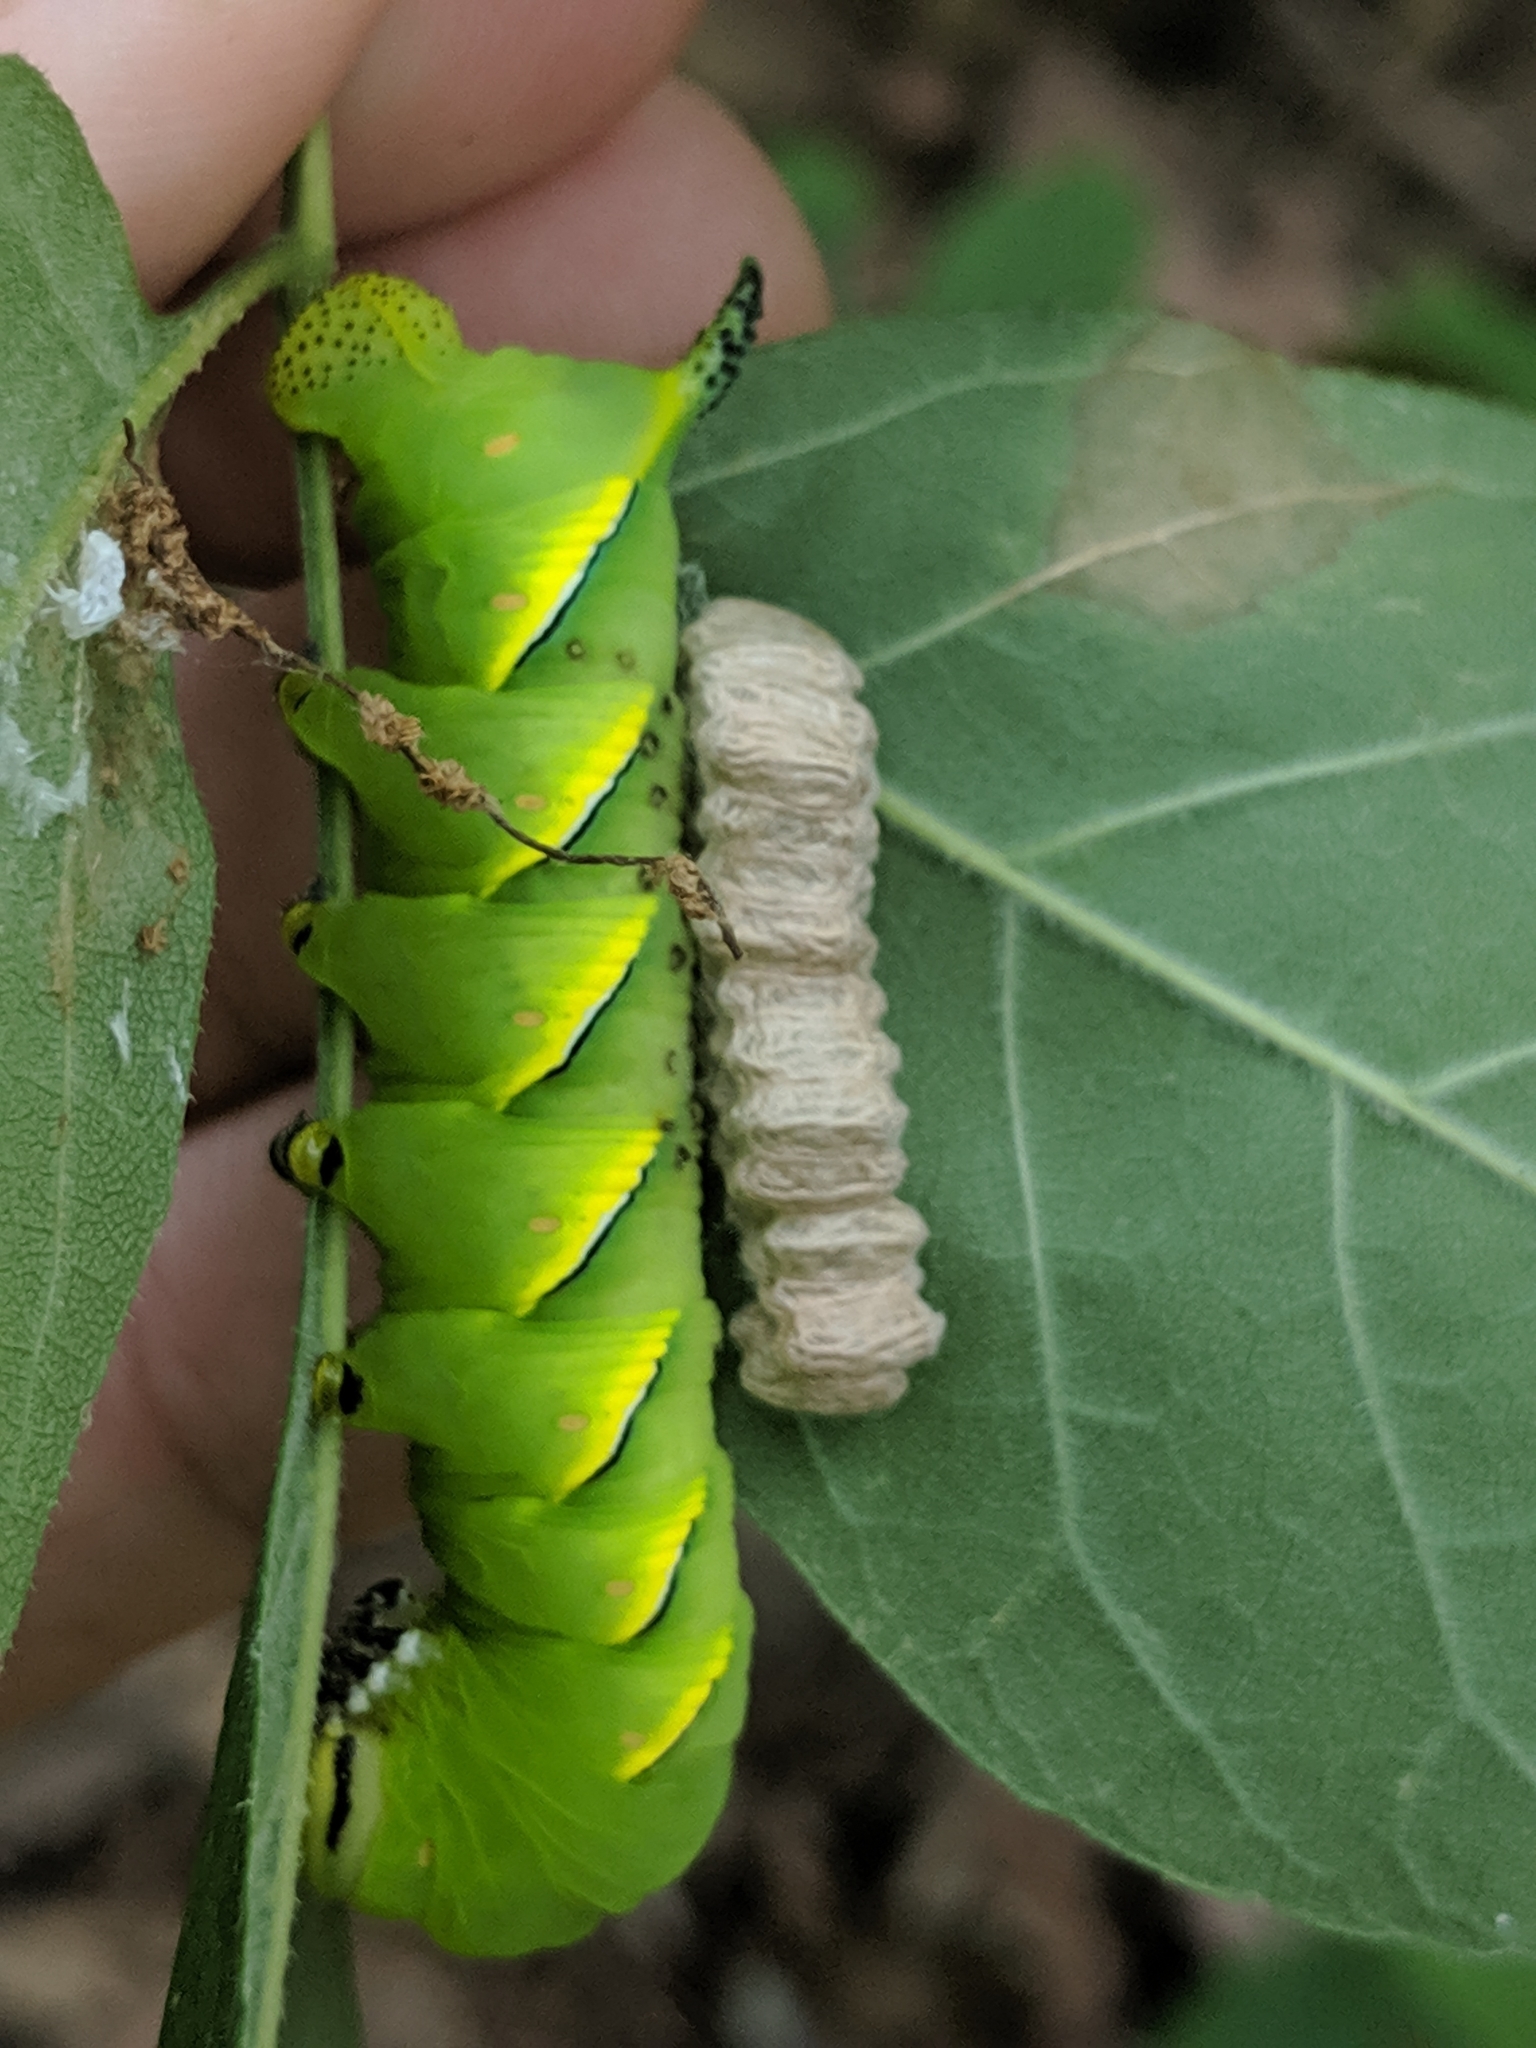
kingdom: Animalia
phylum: Arthropoda
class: Insecta
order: Lepidoptera
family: Sphingidae
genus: Sphinx
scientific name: Sphinx kalmiae
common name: Laurel sphinx
